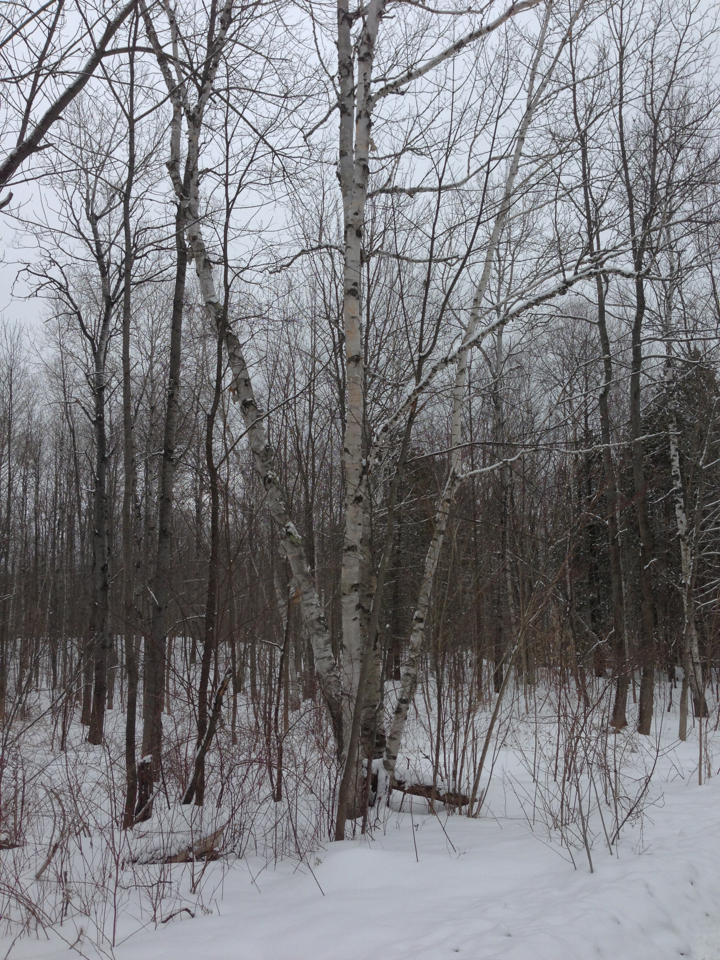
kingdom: Plantae
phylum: Tracheophyta
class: Magnoliopsida
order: Fagales
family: Betulaceae
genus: Betula
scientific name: Betula papyrifera
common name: Paper birch
